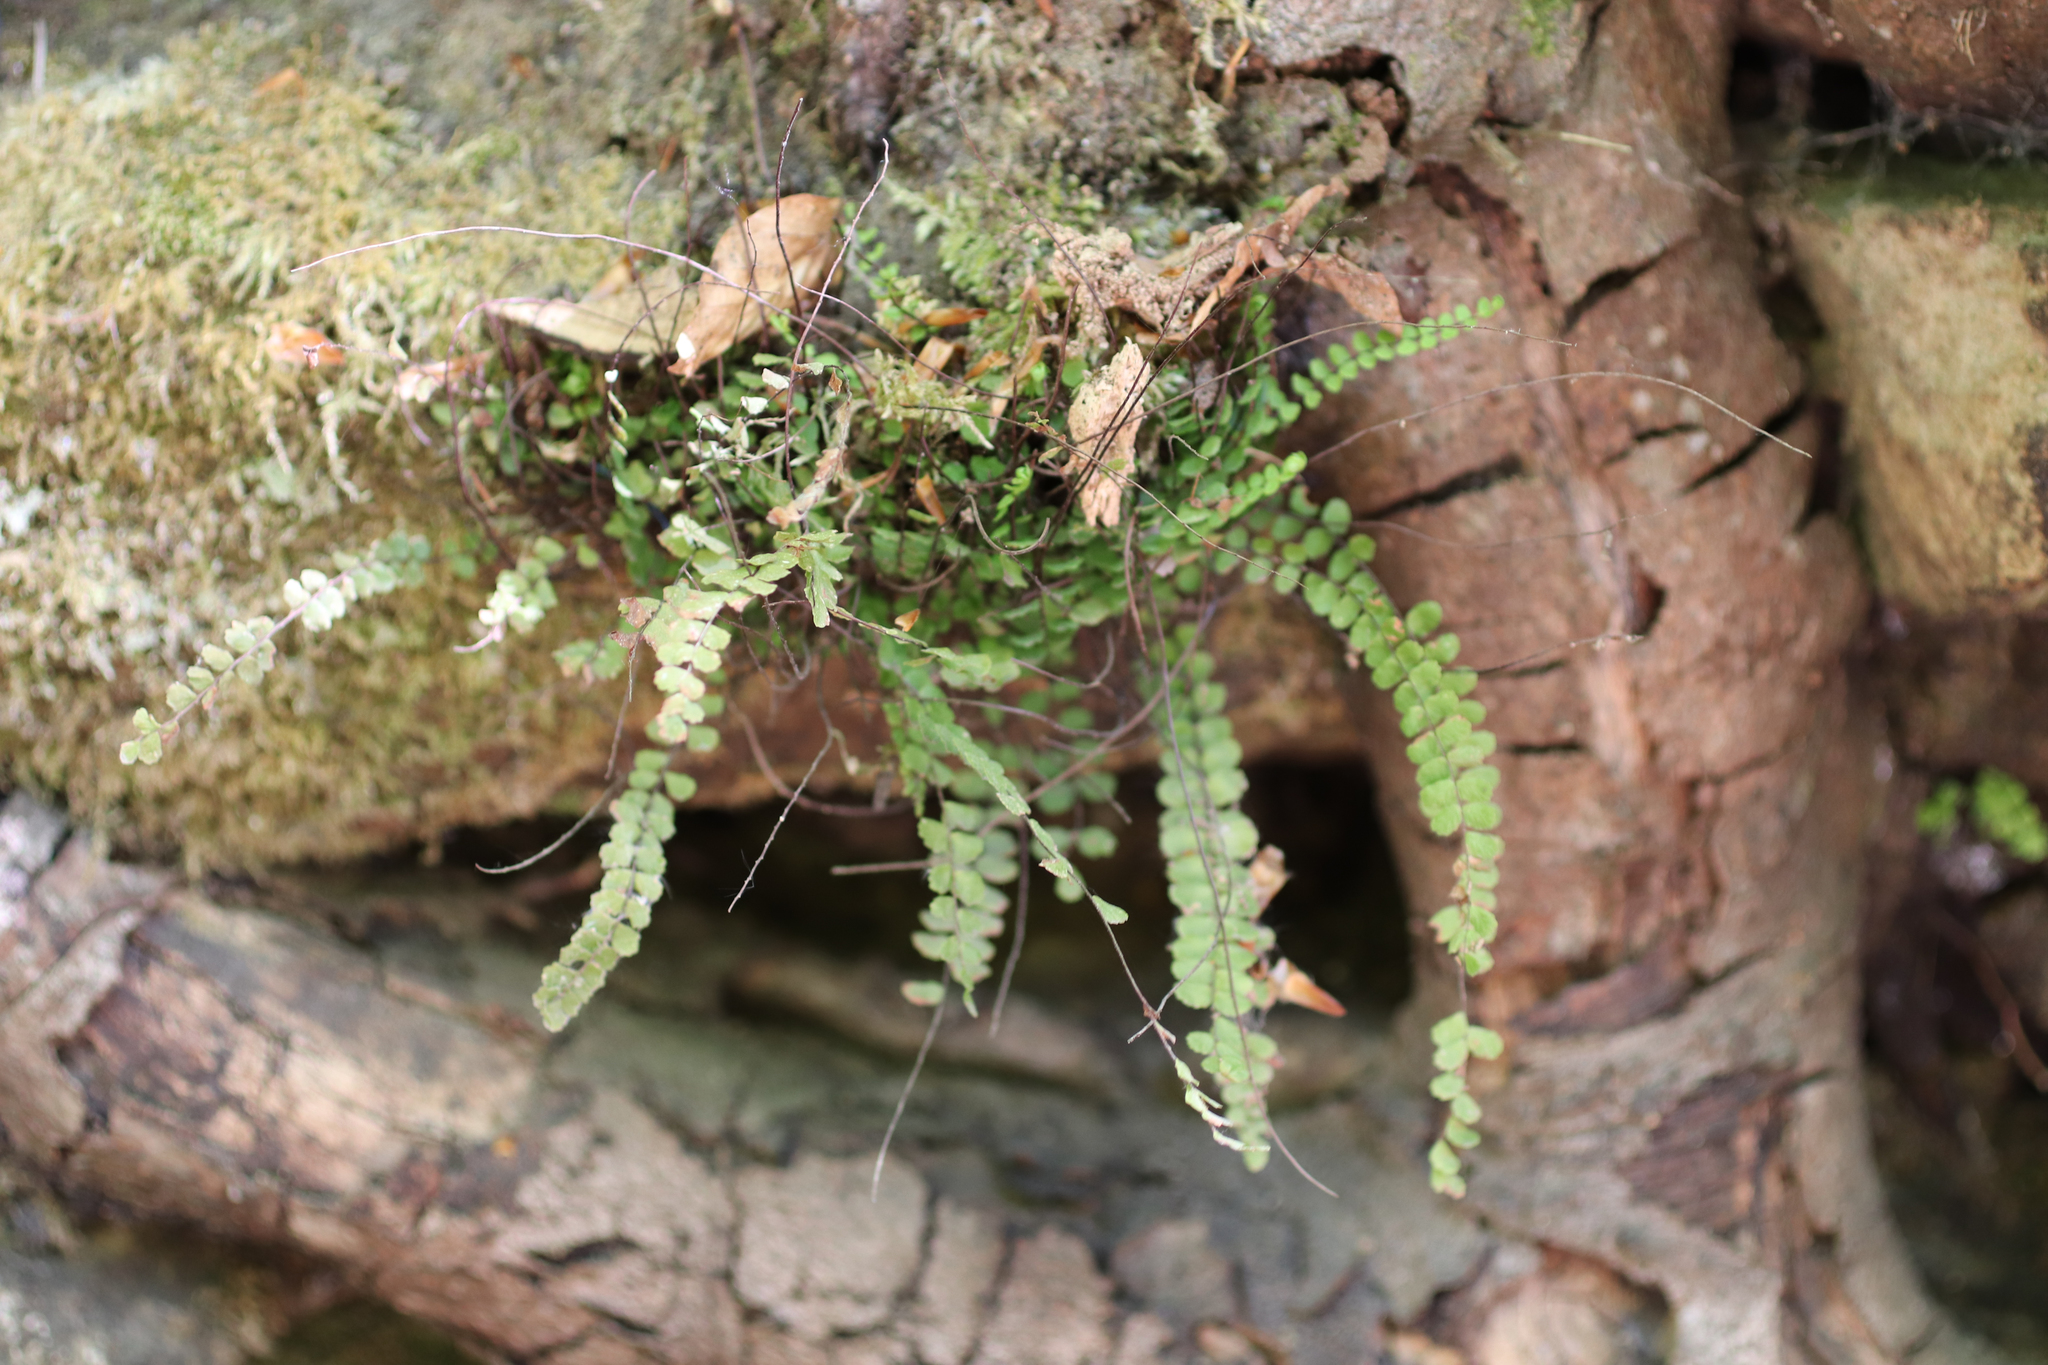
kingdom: Plantae
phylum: Tracheophyta
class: Polypodiopsida
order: Polypodiales
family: Aspleniaceae
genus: Asplenium
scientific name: Asplenium trichomanes
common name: Maidenhair spleenwort
